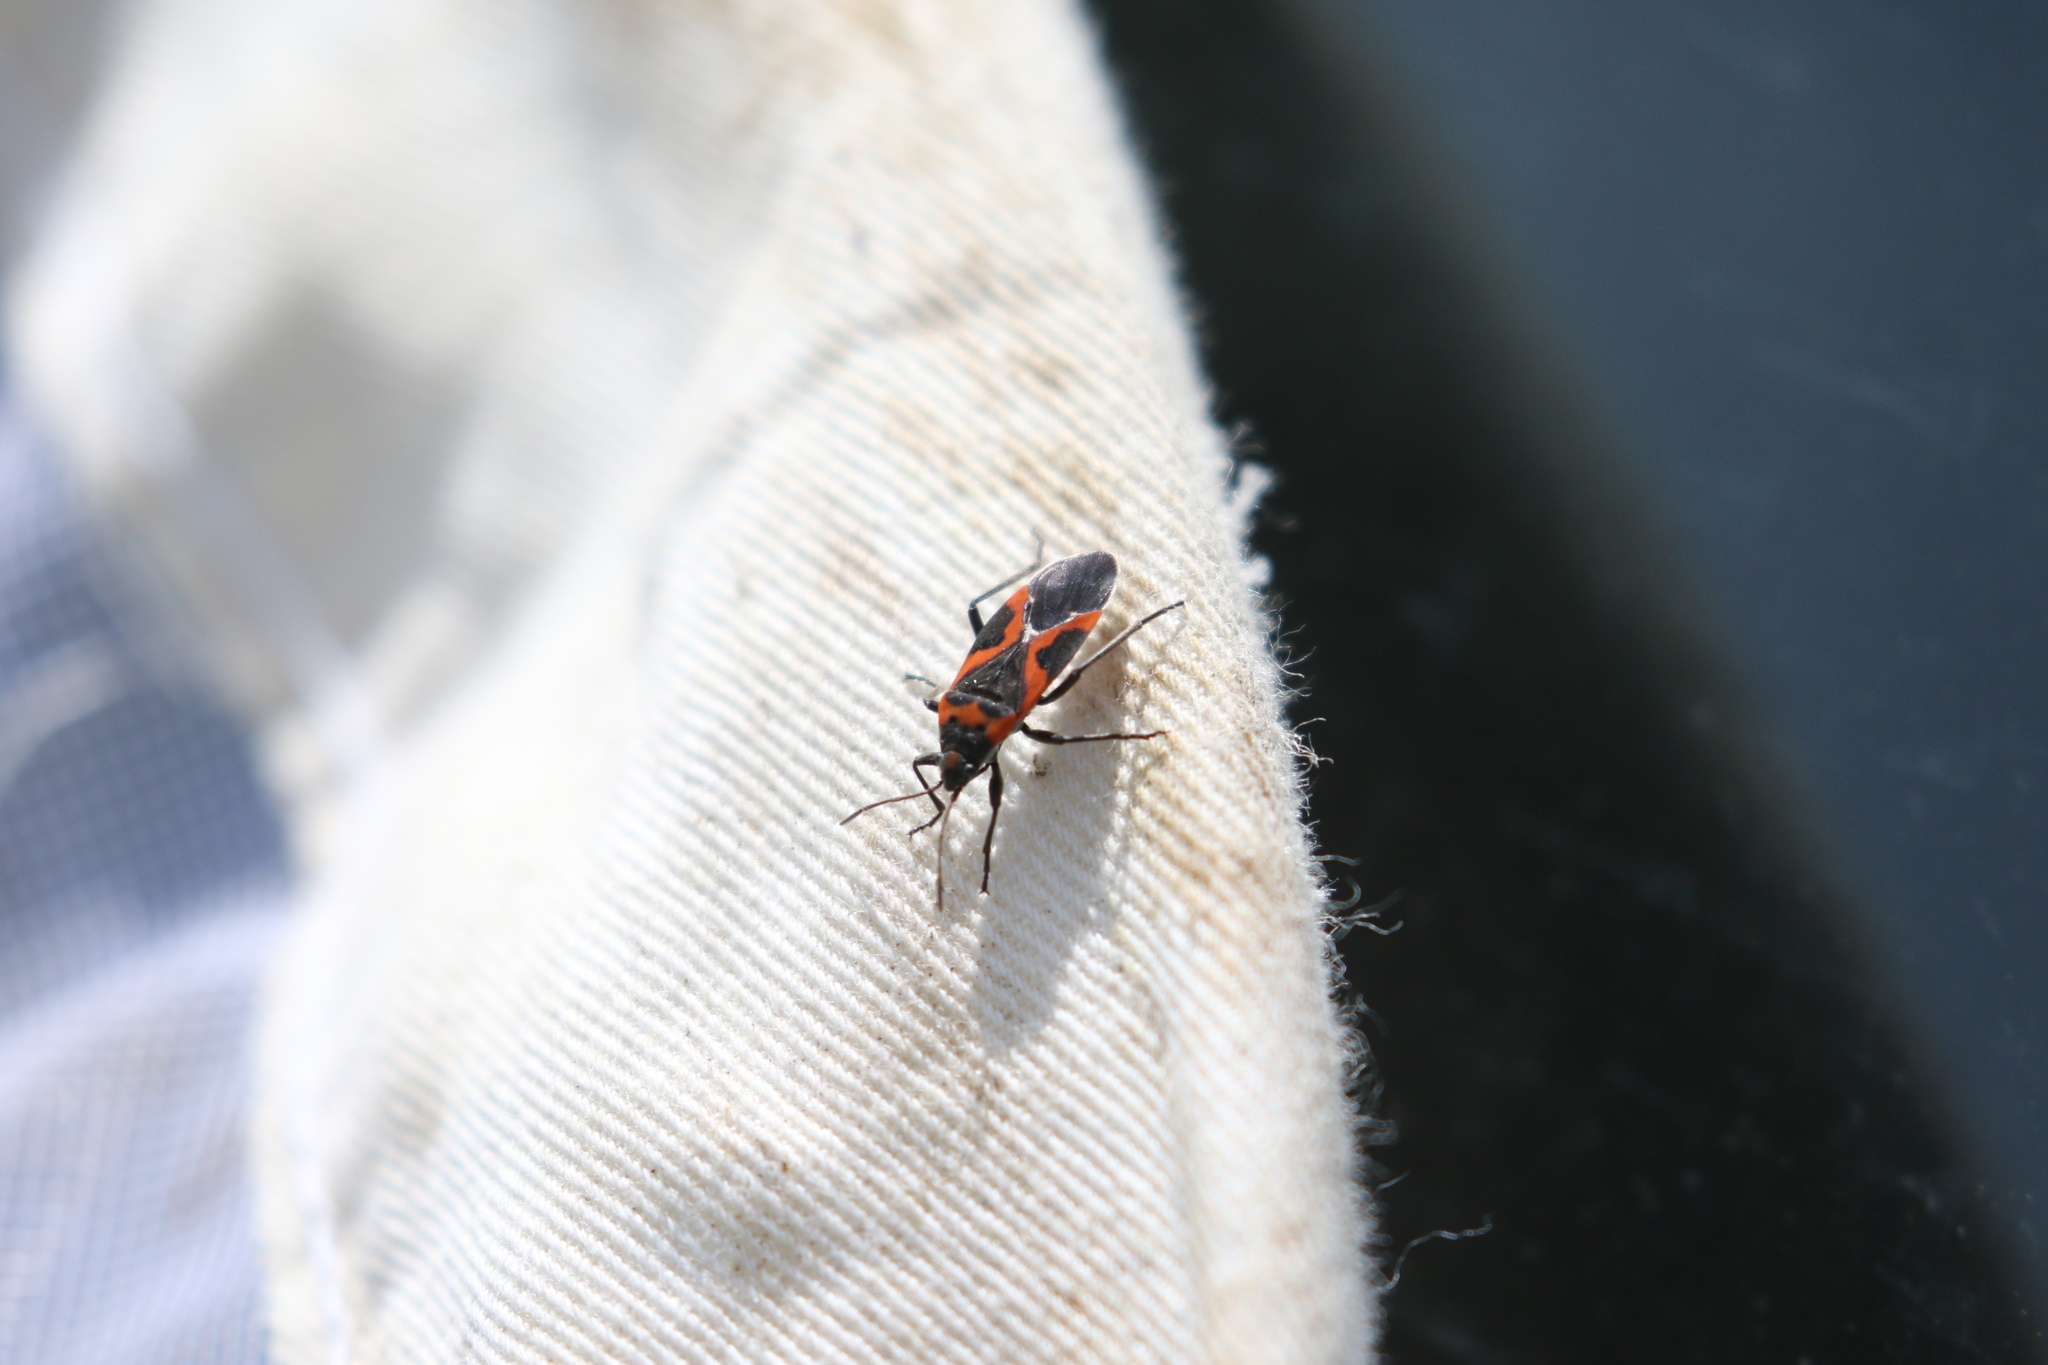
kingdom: Animalia
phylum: Arthropoda
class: Insecta
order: Hemiptera
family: Lygaeidae
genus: Lygaeus
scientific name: Lygaeus kalmii
